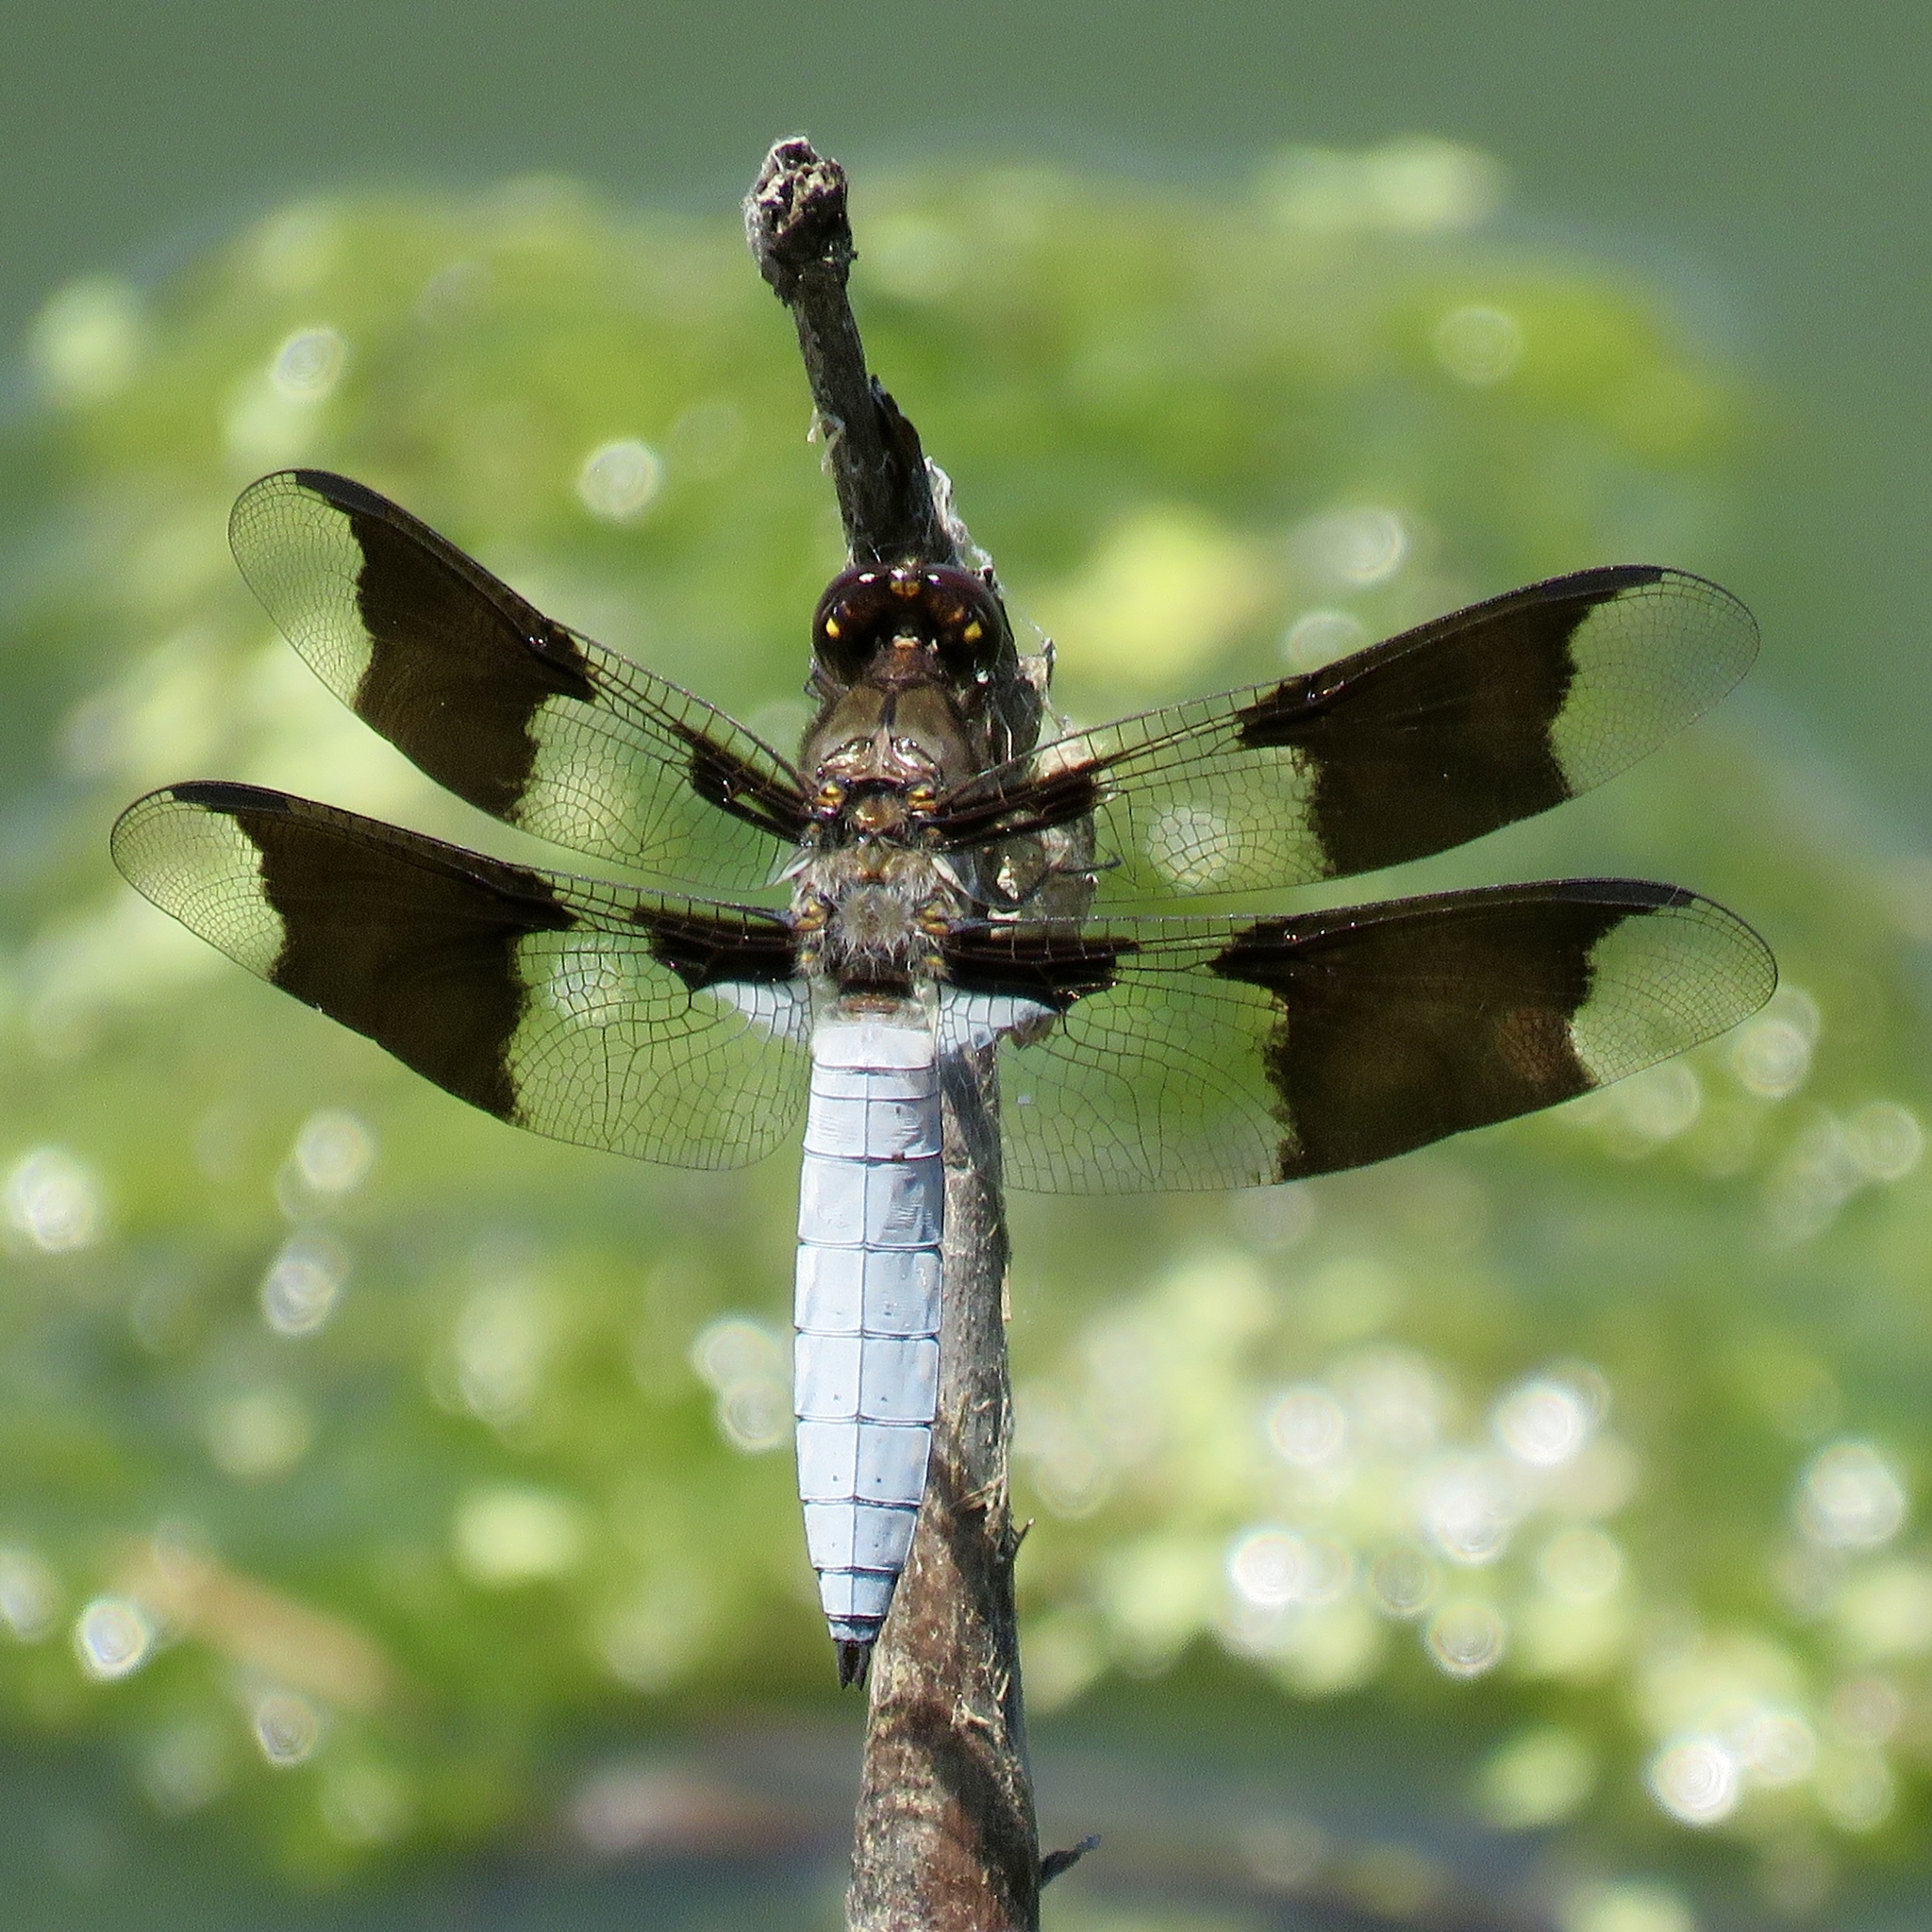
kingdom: Animalia
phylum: Arthropoda
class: Insecta
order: Odonata
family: Libellulidae
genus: Plathemis
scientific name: Plathemis lydia
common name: Common whitetail
